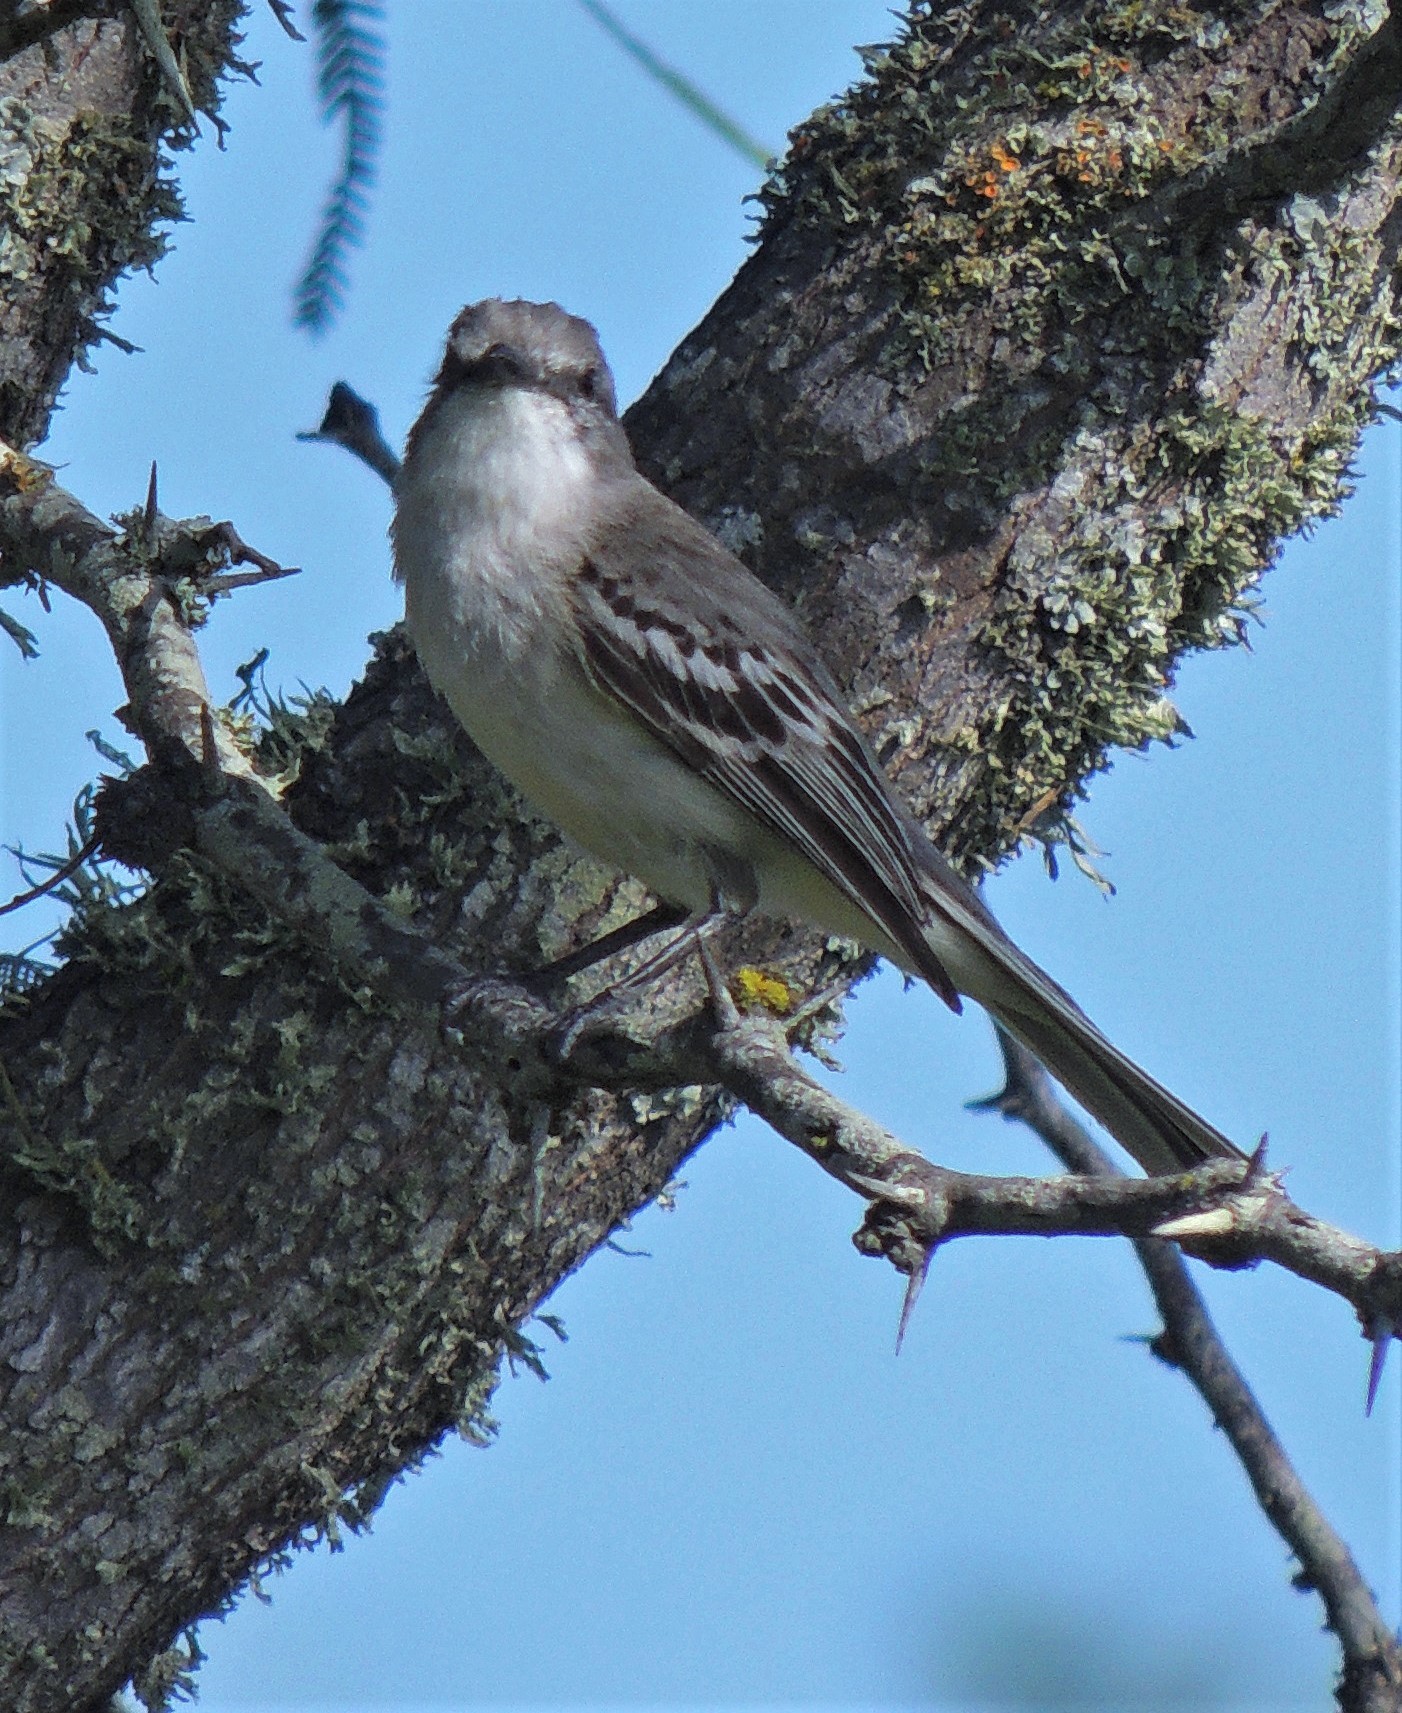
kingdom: Animalia
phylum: Chordata
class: Aves
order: Passeriformes
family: Tyrannidae
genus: Suiriri
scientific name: Suiriri suiriri
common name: Suiriri flycatcher
